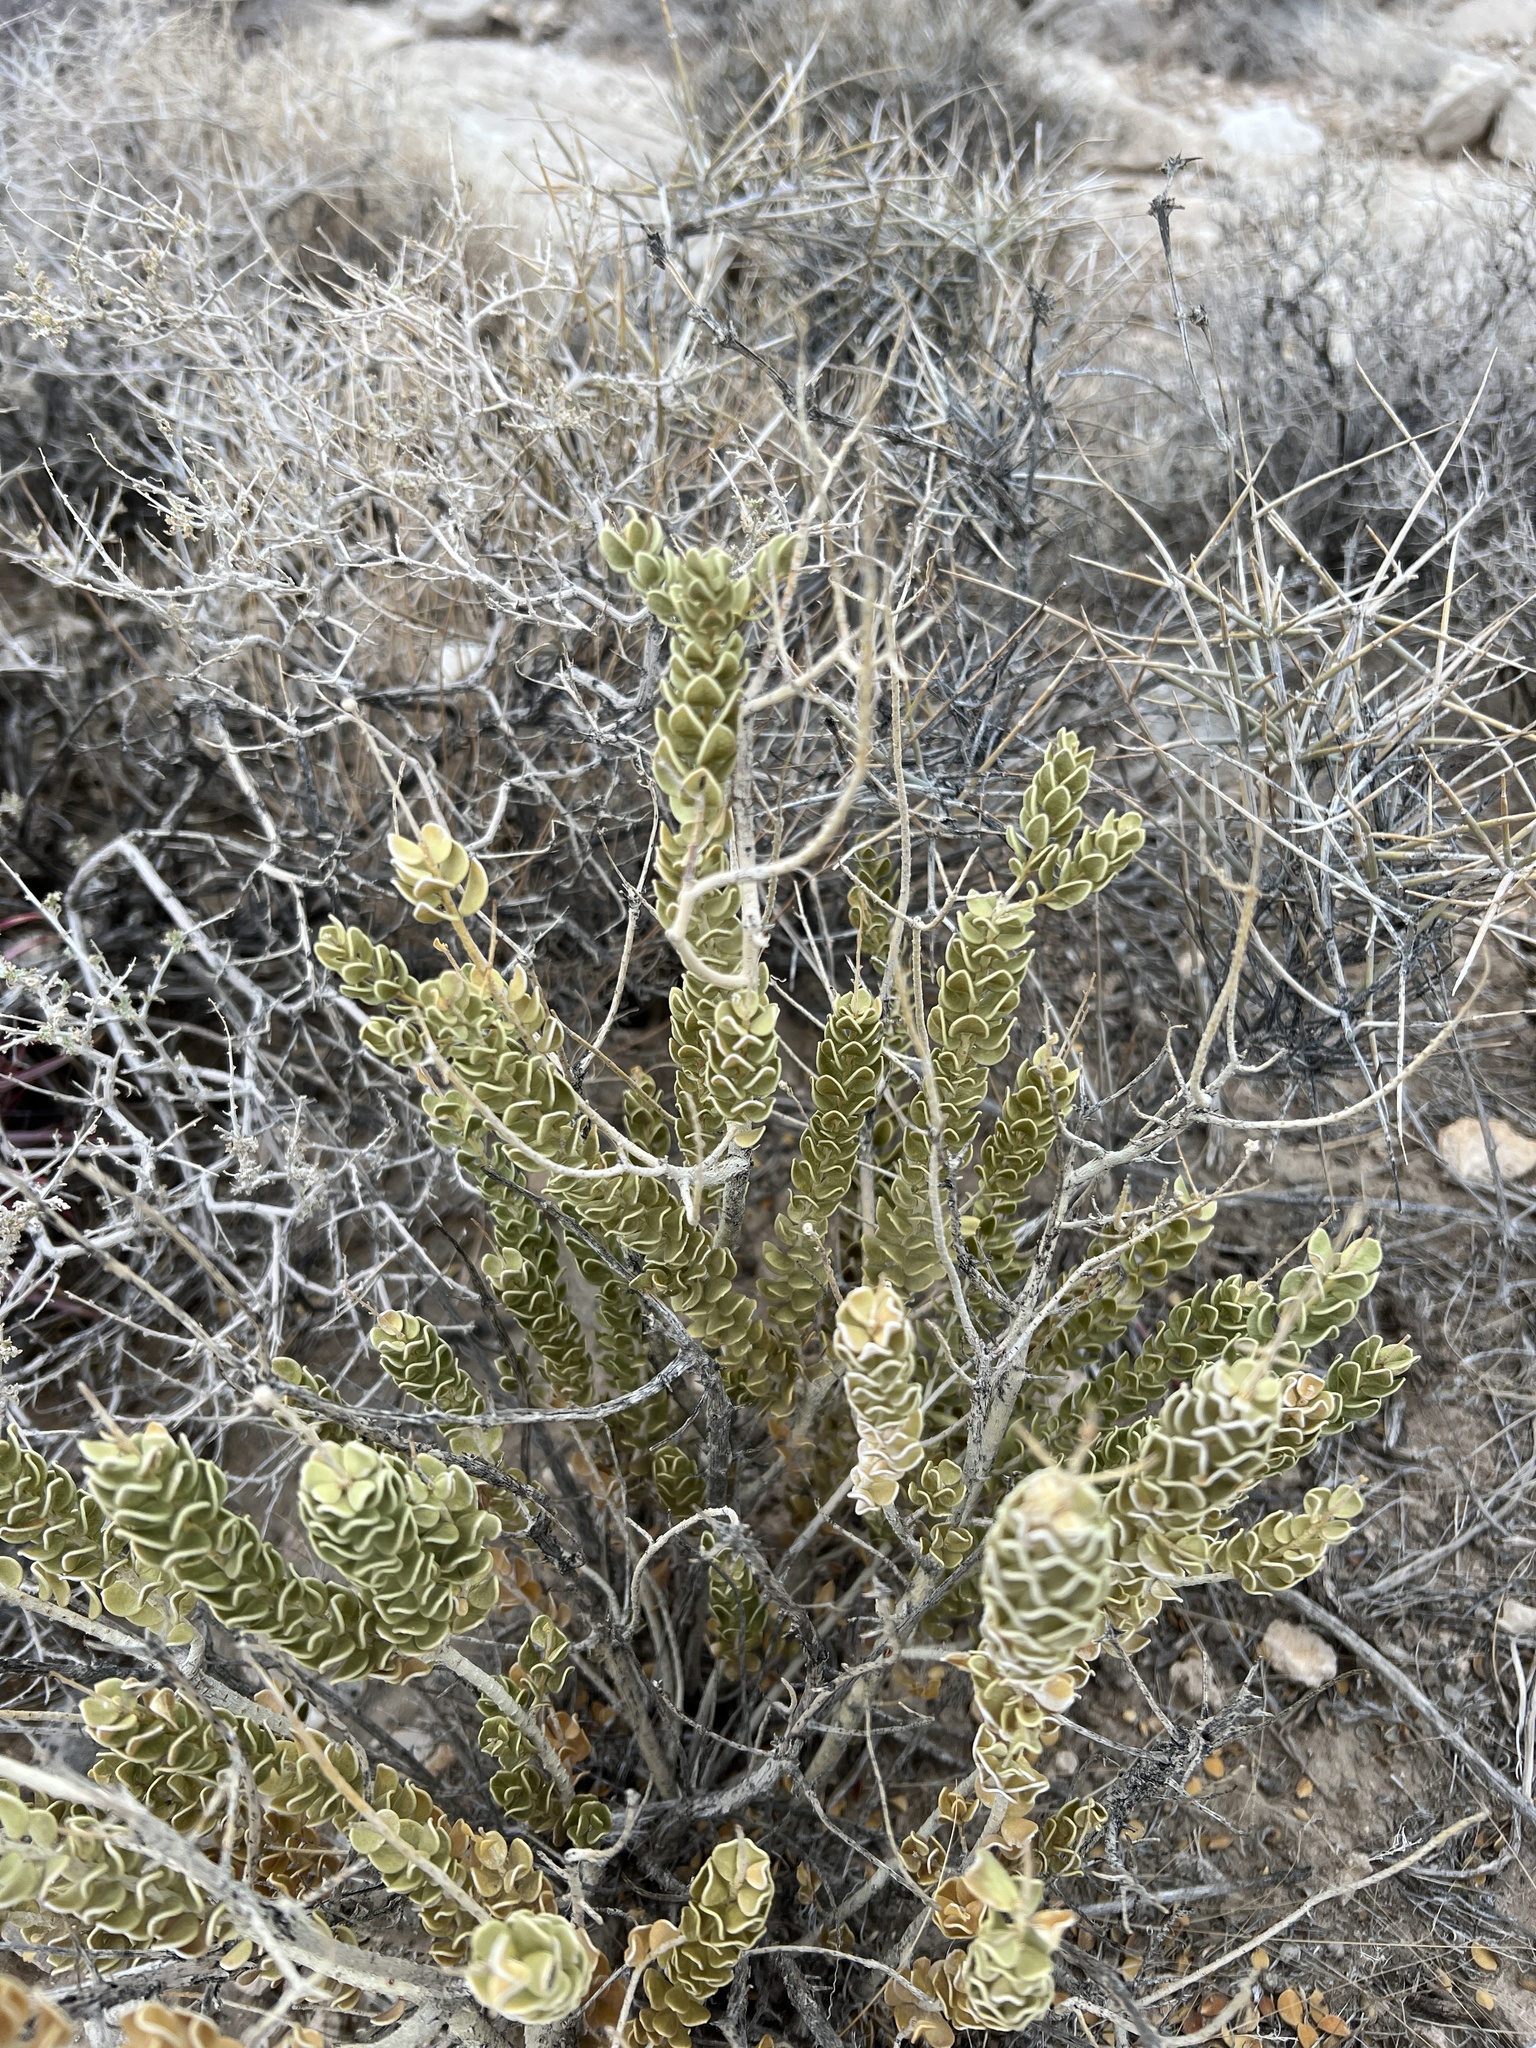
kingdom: Plantae
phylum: Tracheophyta
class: Magnoliopsida
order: Celastrales
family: Celastraceae
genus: Mortonia
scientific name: Mortonia utahensis
